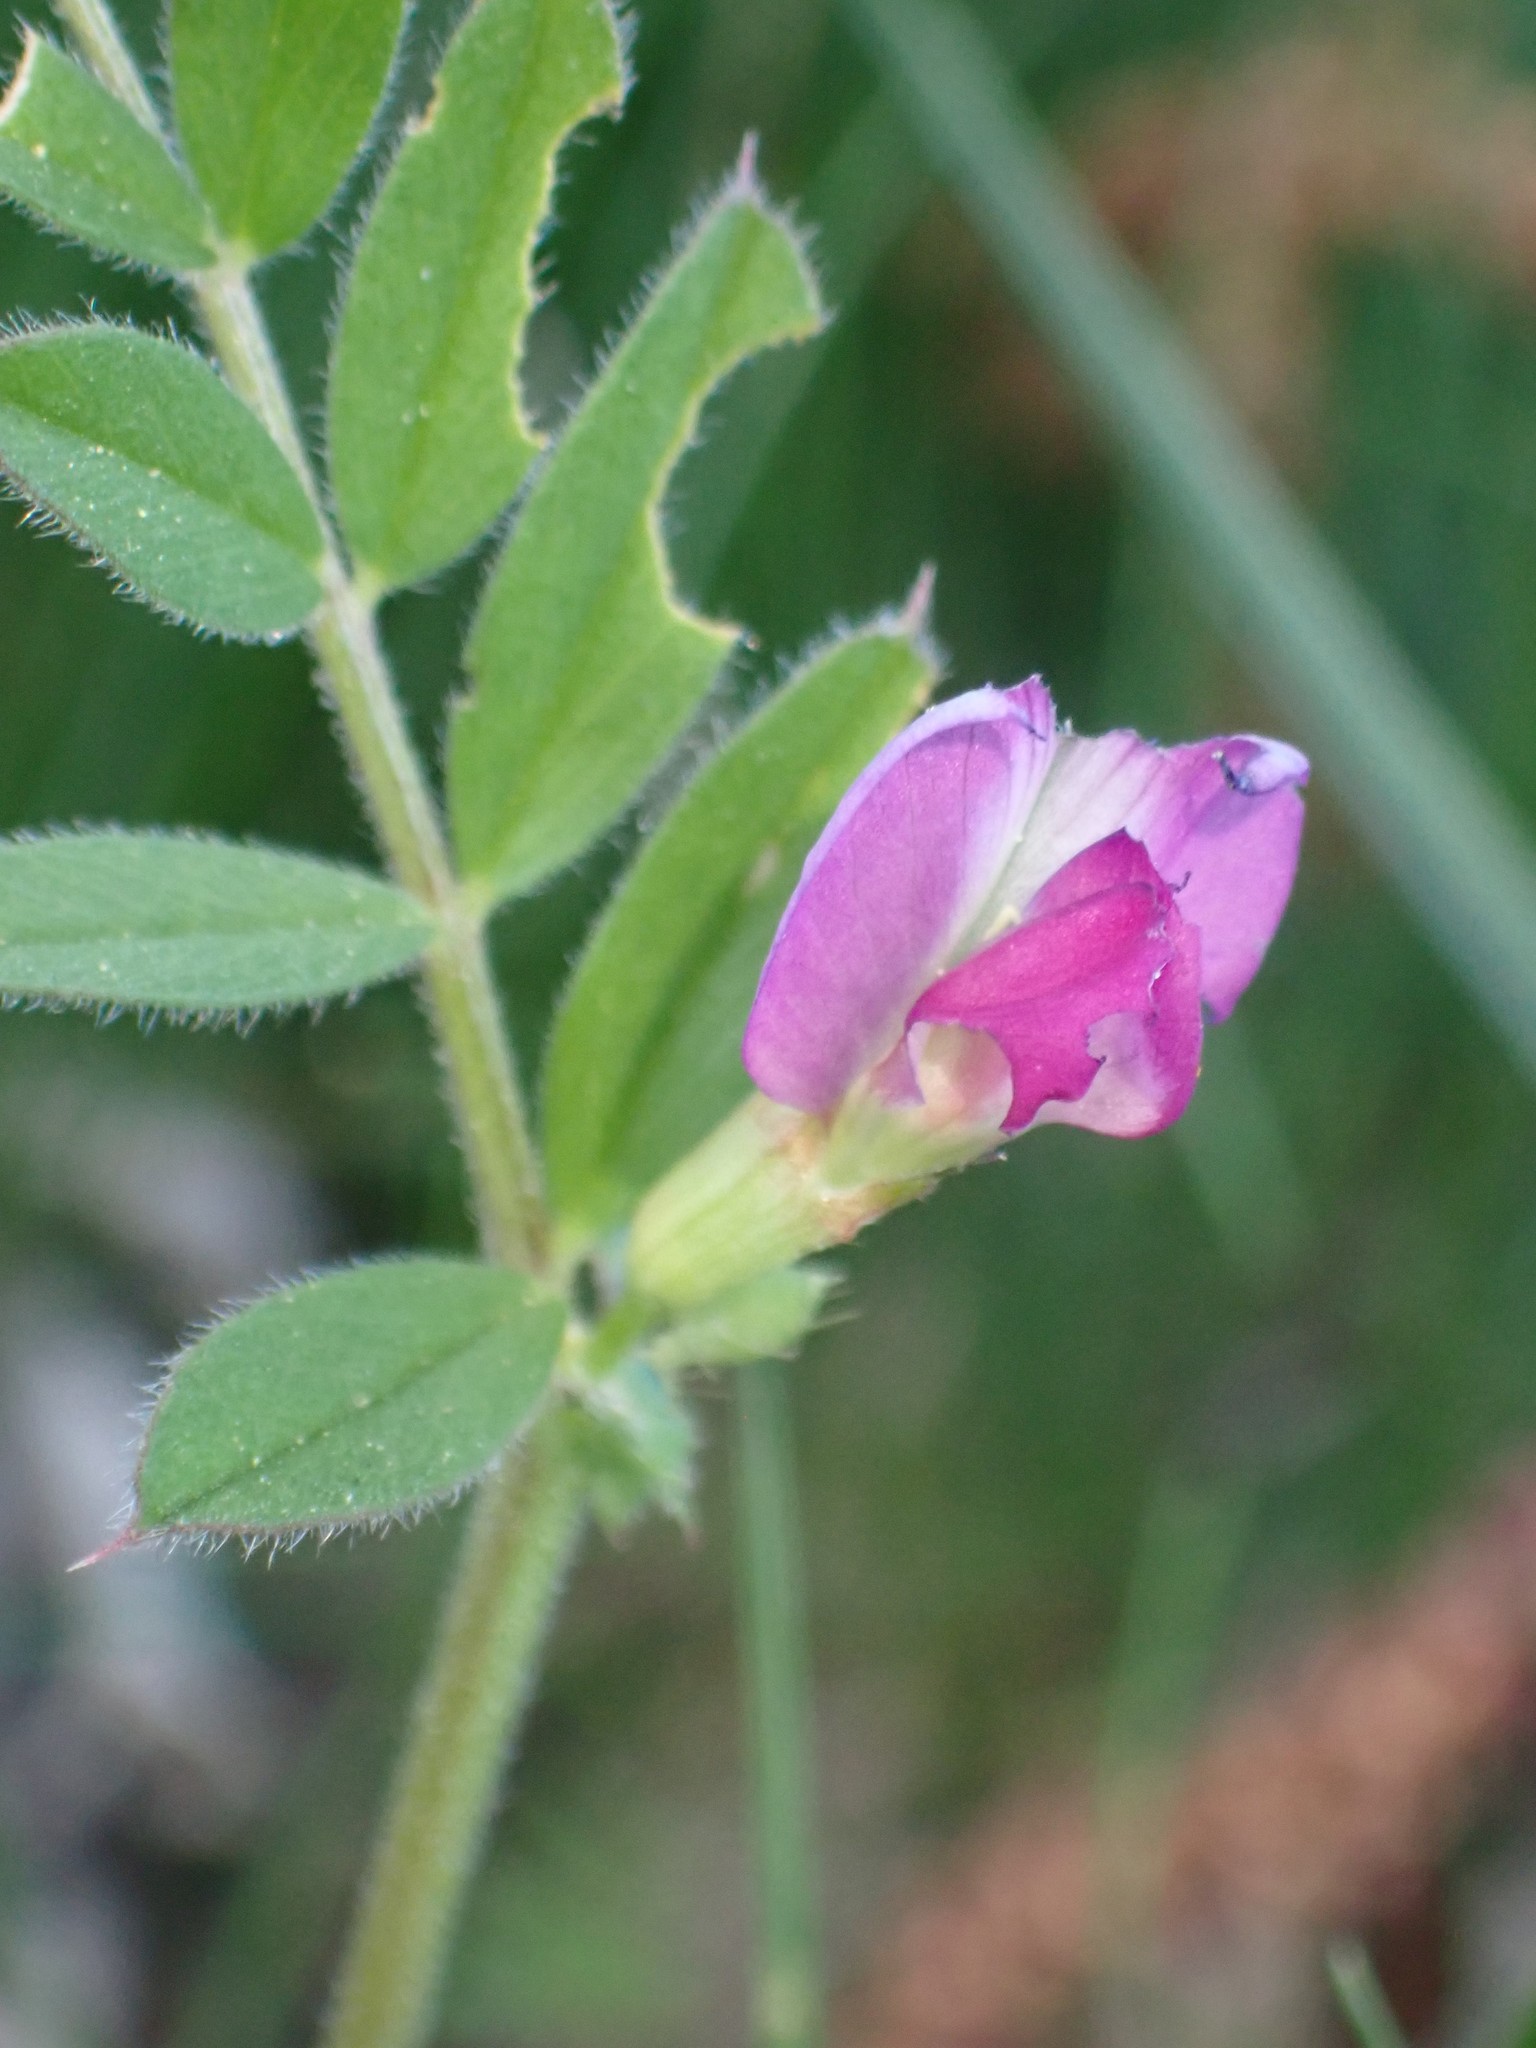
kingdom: Plantae
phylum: Tracheophyta
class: Magnoliopsida
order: Fabales
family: Fabaceae
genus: Vicia
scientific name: Vicia sativa
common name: Garden vetch
